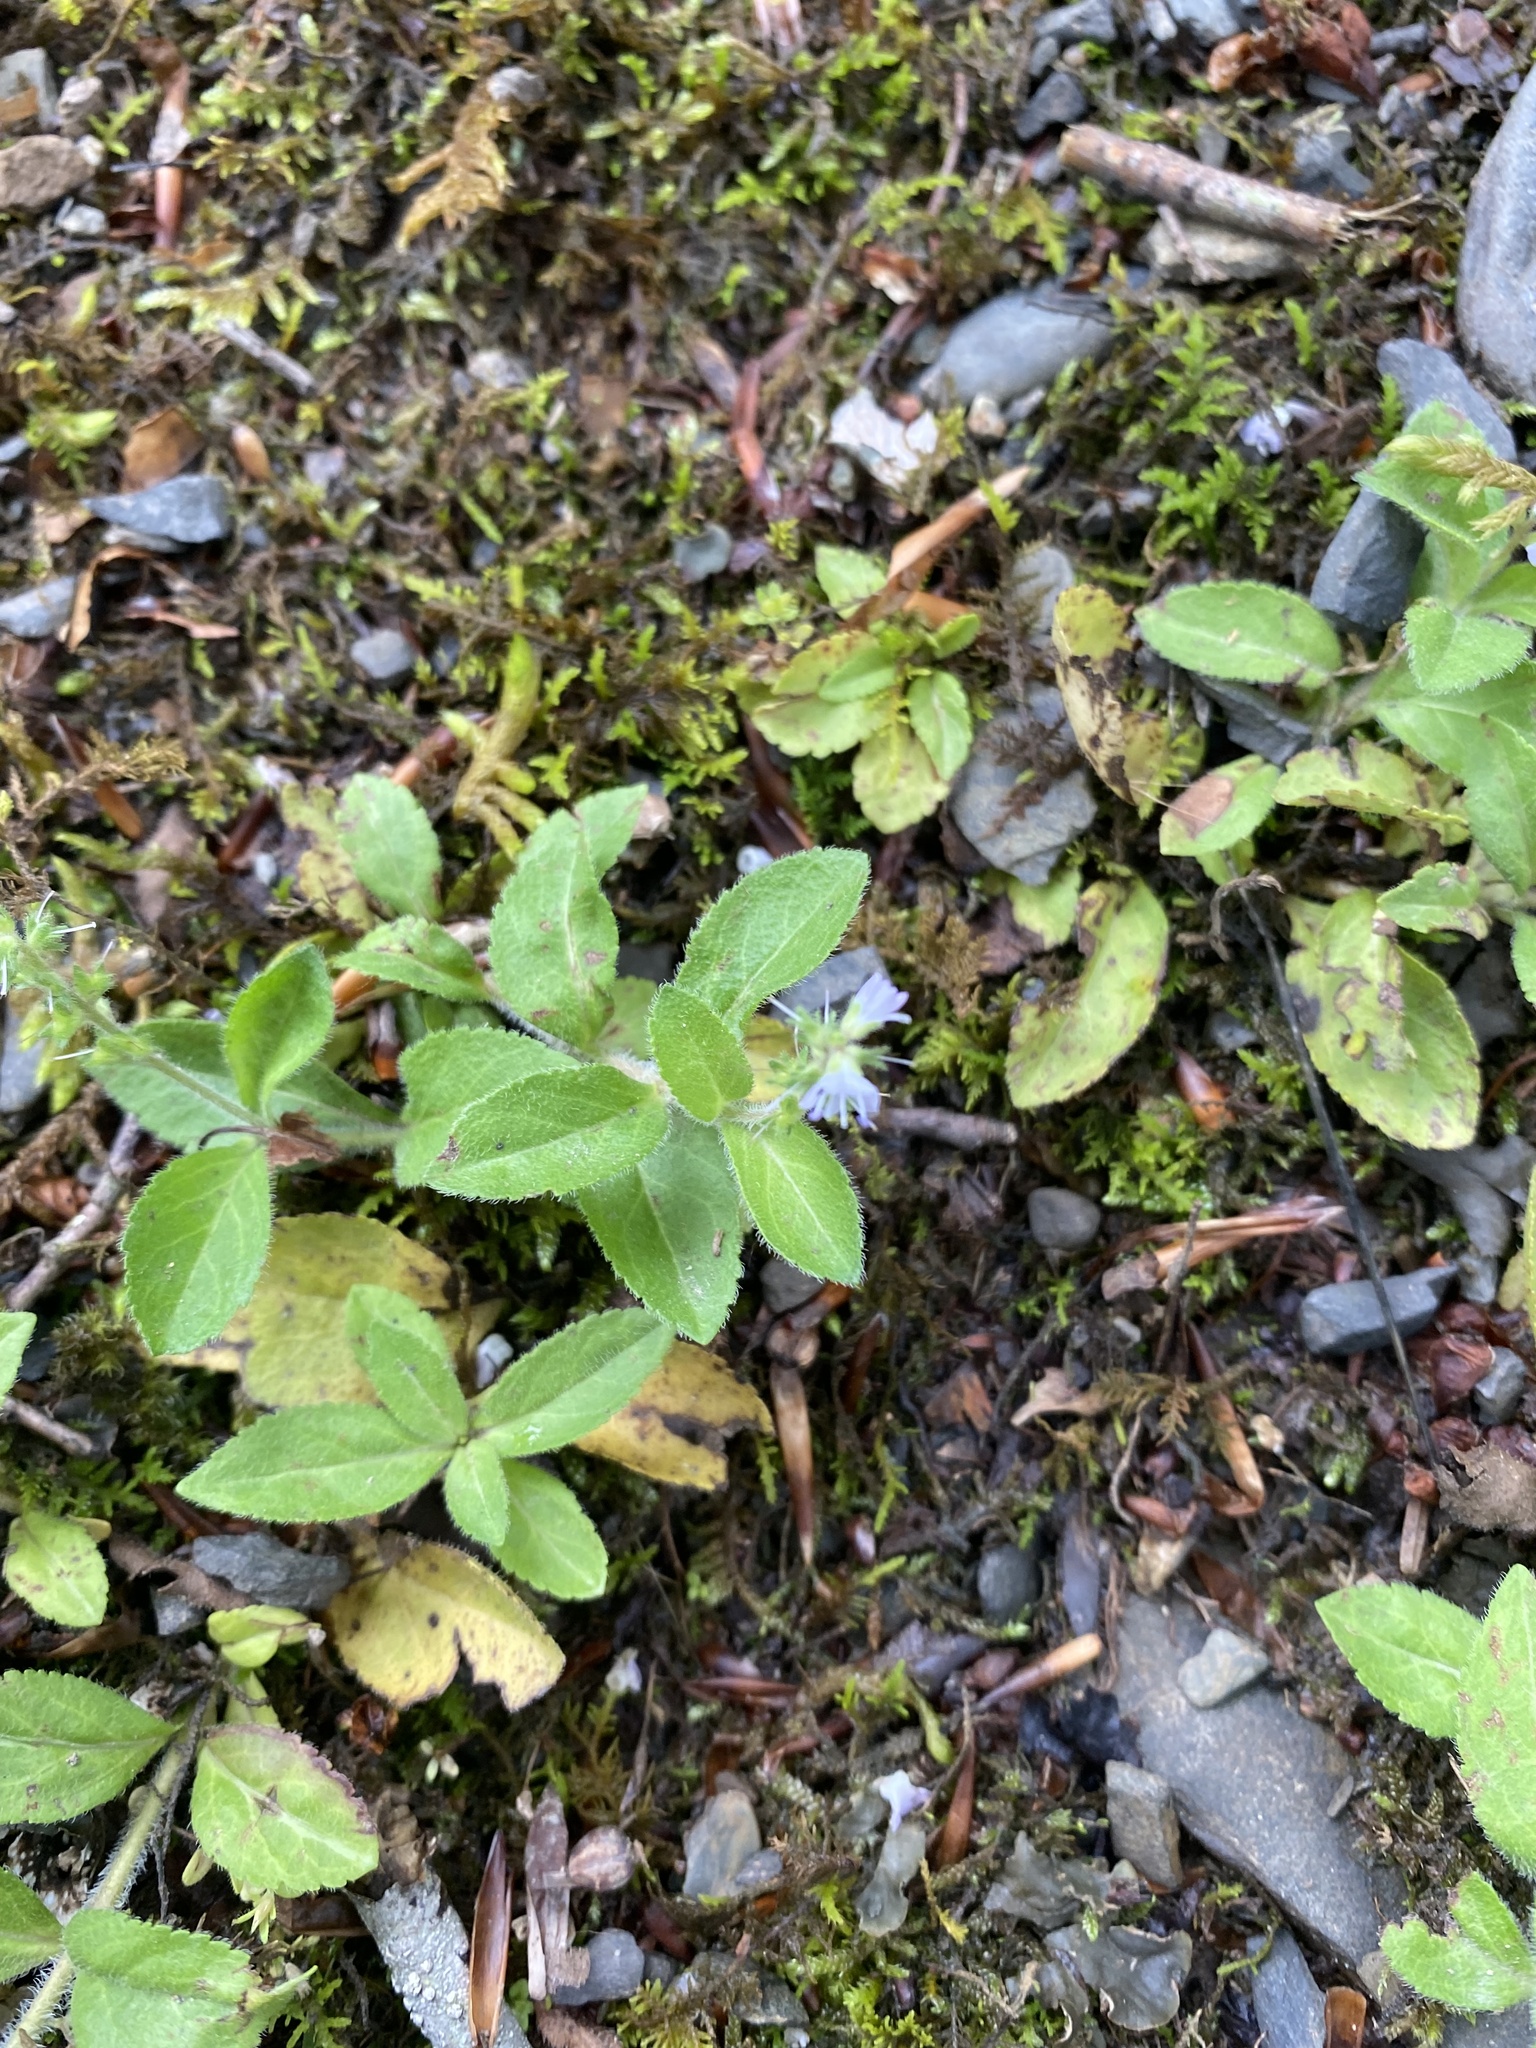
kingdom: Plantae
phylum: Tracheophyta
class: Magnoliopsida
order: Lamiales
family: Plantaginaceae
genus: Veronica
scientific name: Veronica officinalis
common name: Common speedwell
